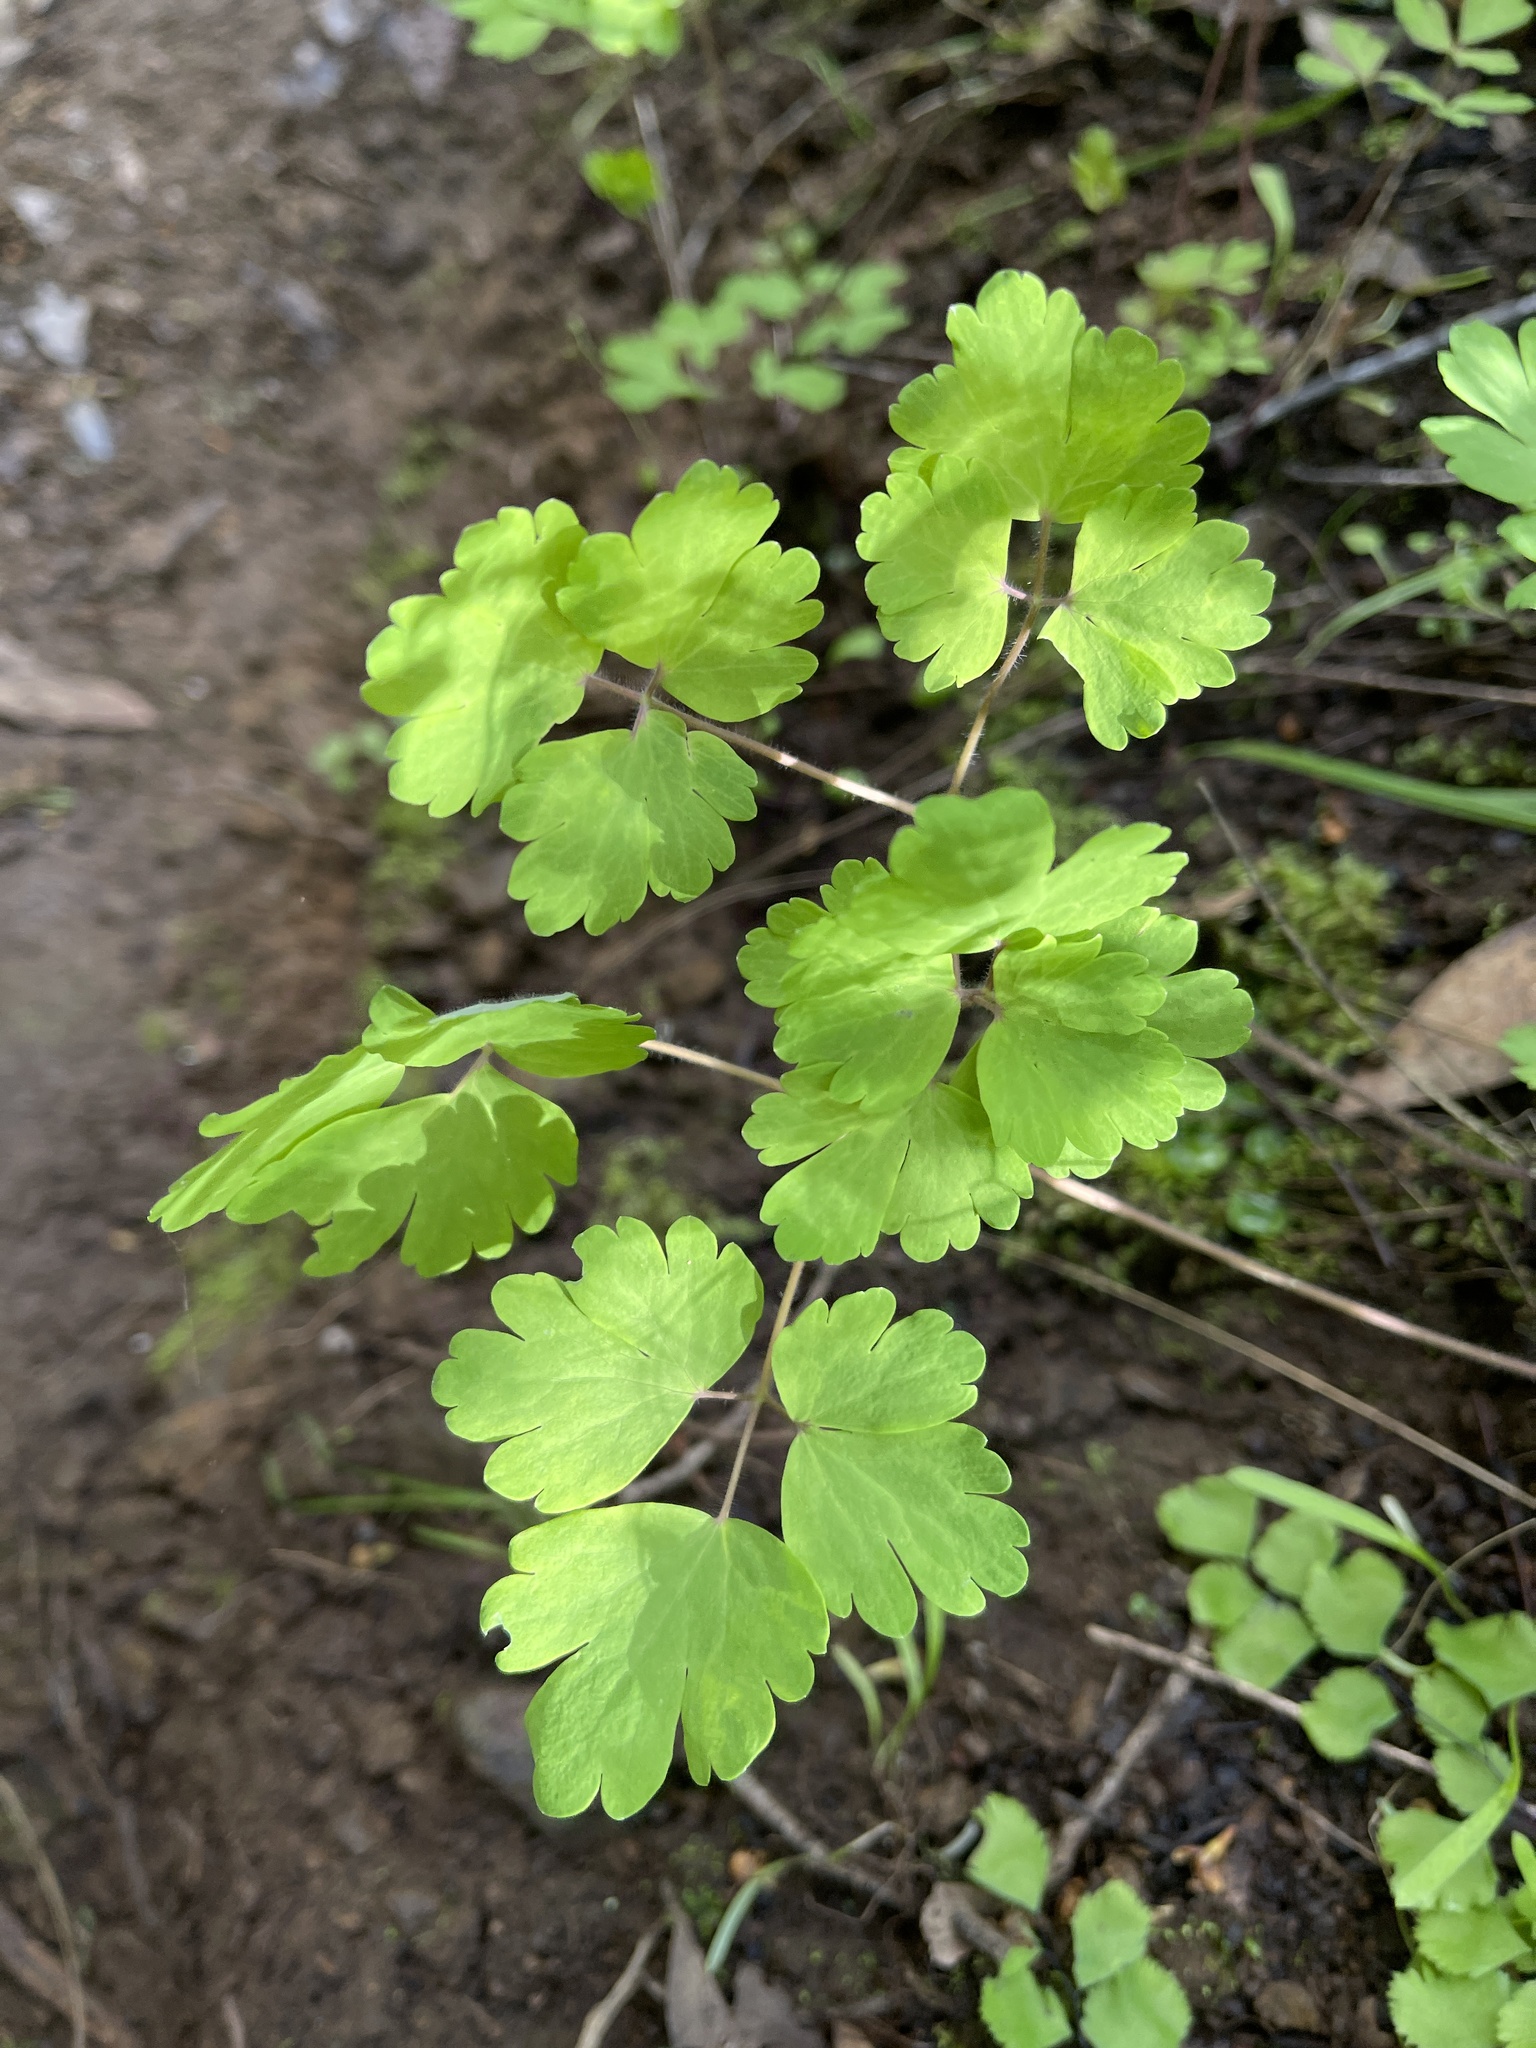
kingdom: Plantae
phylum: Tracheophyta
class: Magnoliopsida
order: Ranunculales
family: Ranunculaceae
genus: Aquilegia
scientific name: Aquilegia formosa
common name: Sitka columbine
